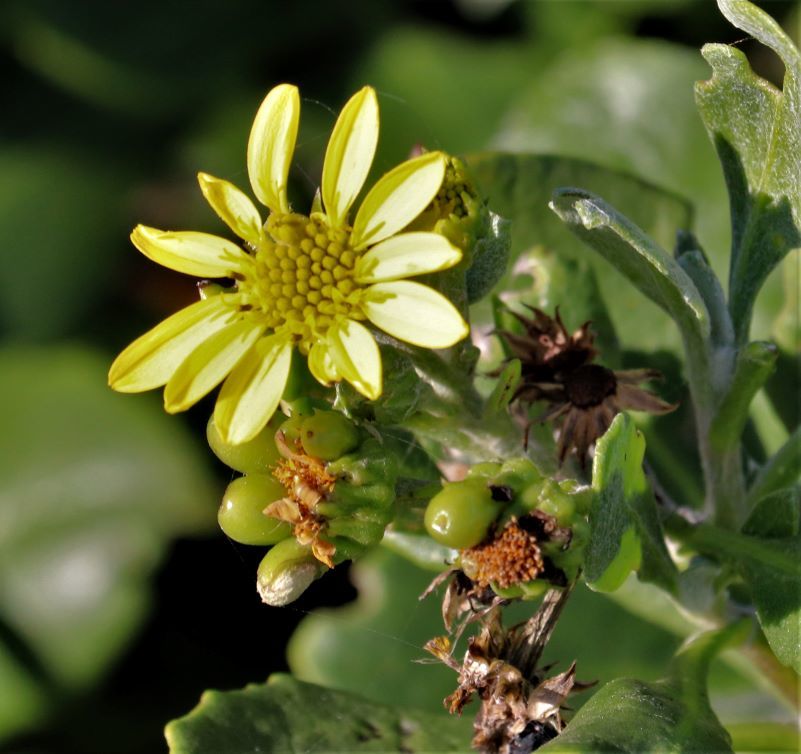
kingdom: Plantae
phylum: Tracheophyta
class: Magnoliopsida
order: Asterales
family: Asteraceae
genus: Osteospermum
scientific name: Osteospermum moniliferum
